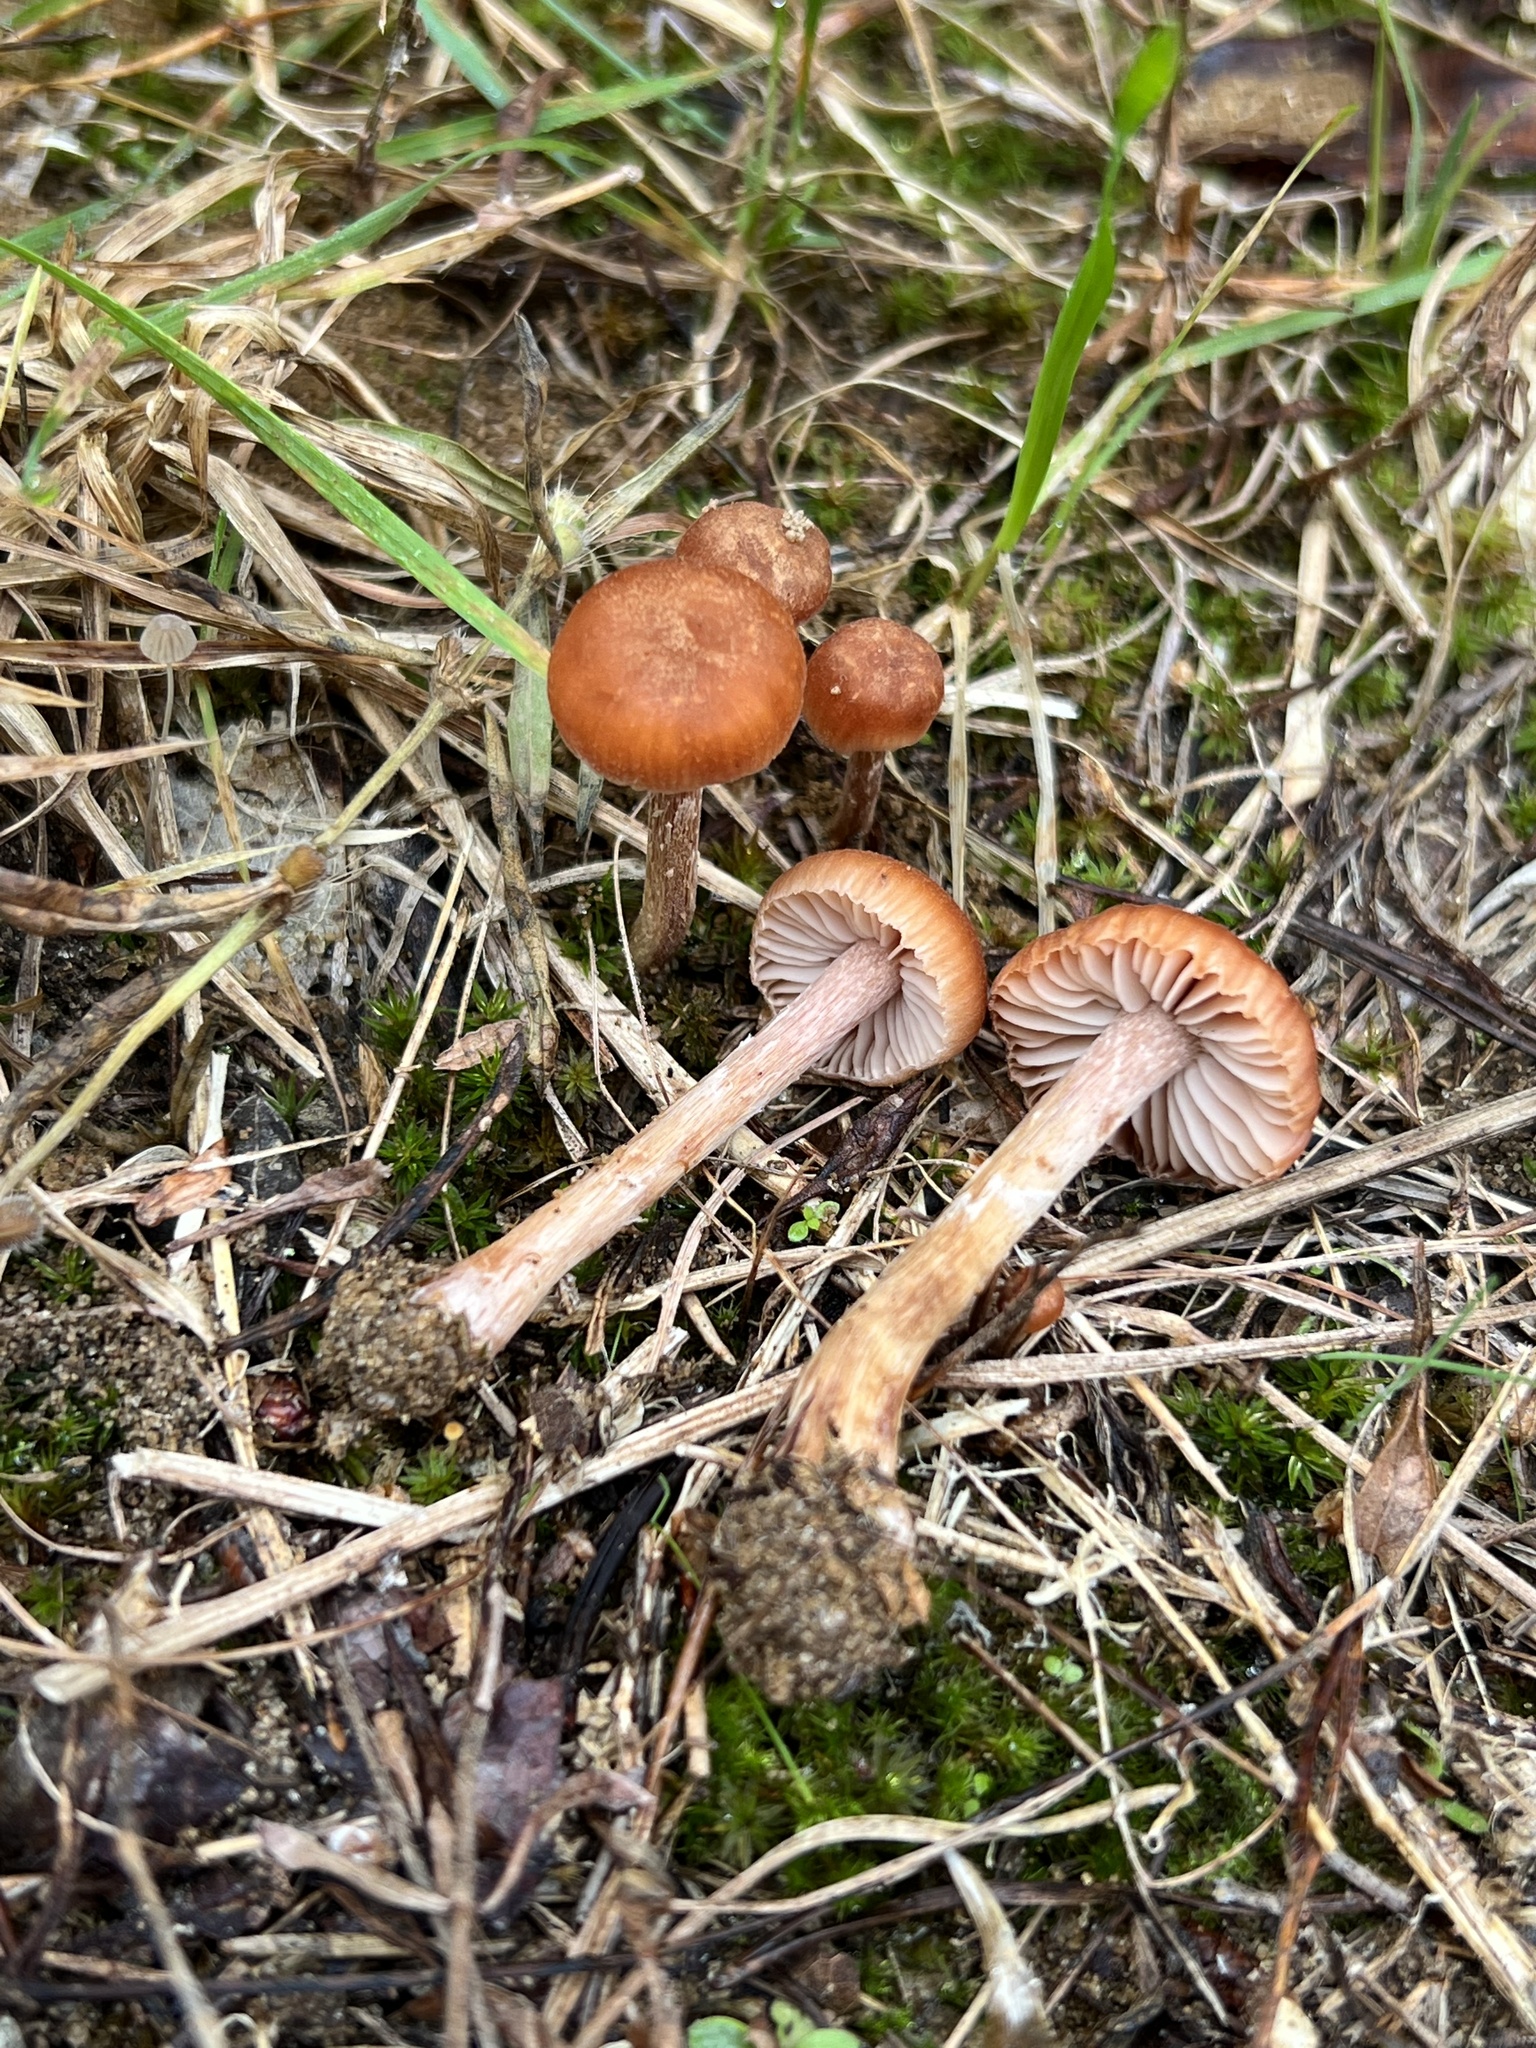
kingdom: Fungi
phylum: Basidiomycota
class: Agaricomycetes
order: Agaricales
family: Hydnangiaceae
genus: Laccaria
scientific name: Laccaria trichodermophora
